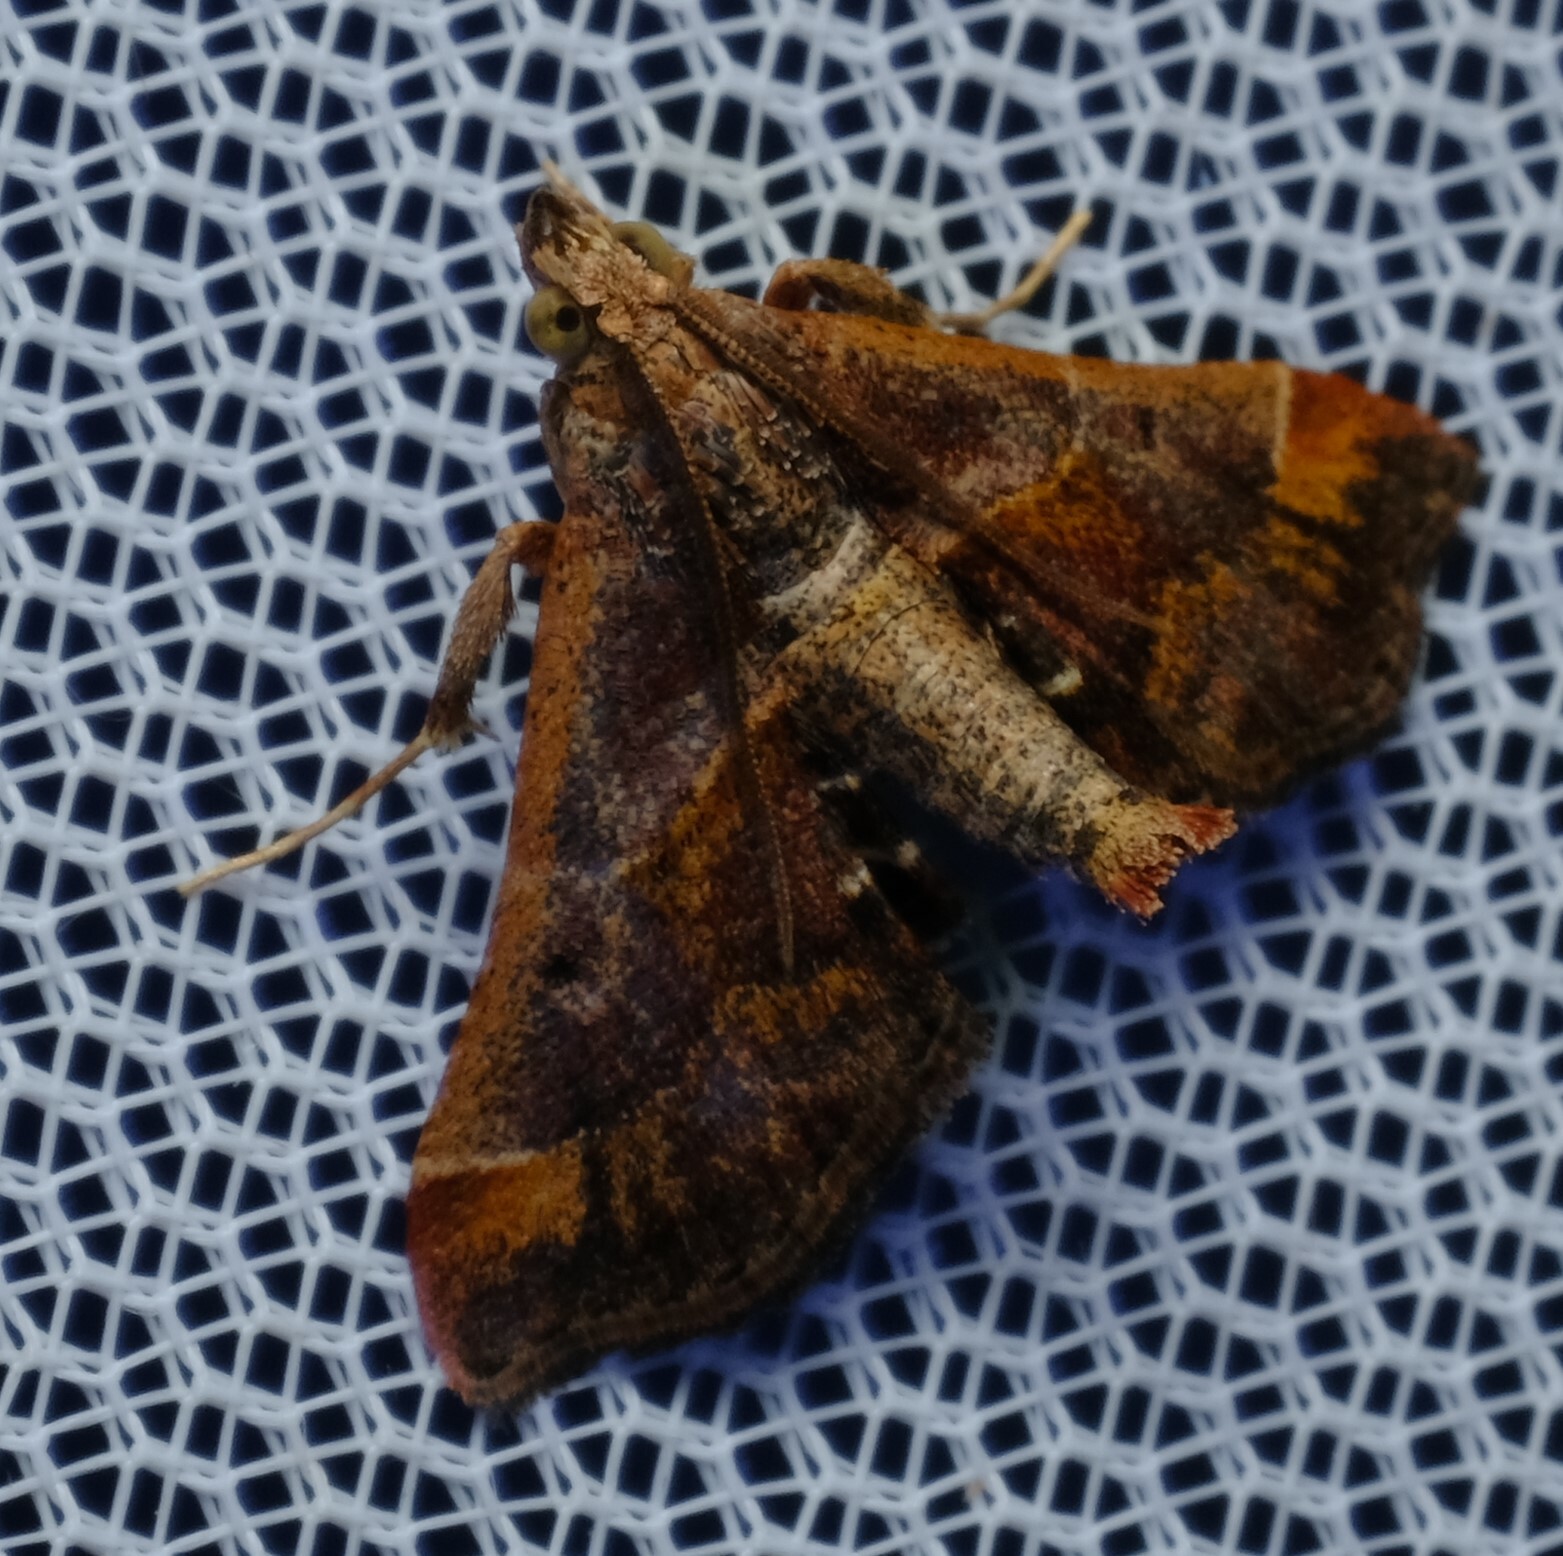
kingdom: Animalia
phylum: Arthropoda
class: Insecta
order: Lepidoptera
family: Pyralidae
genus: Gauna
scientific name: Gauna aegusalis
